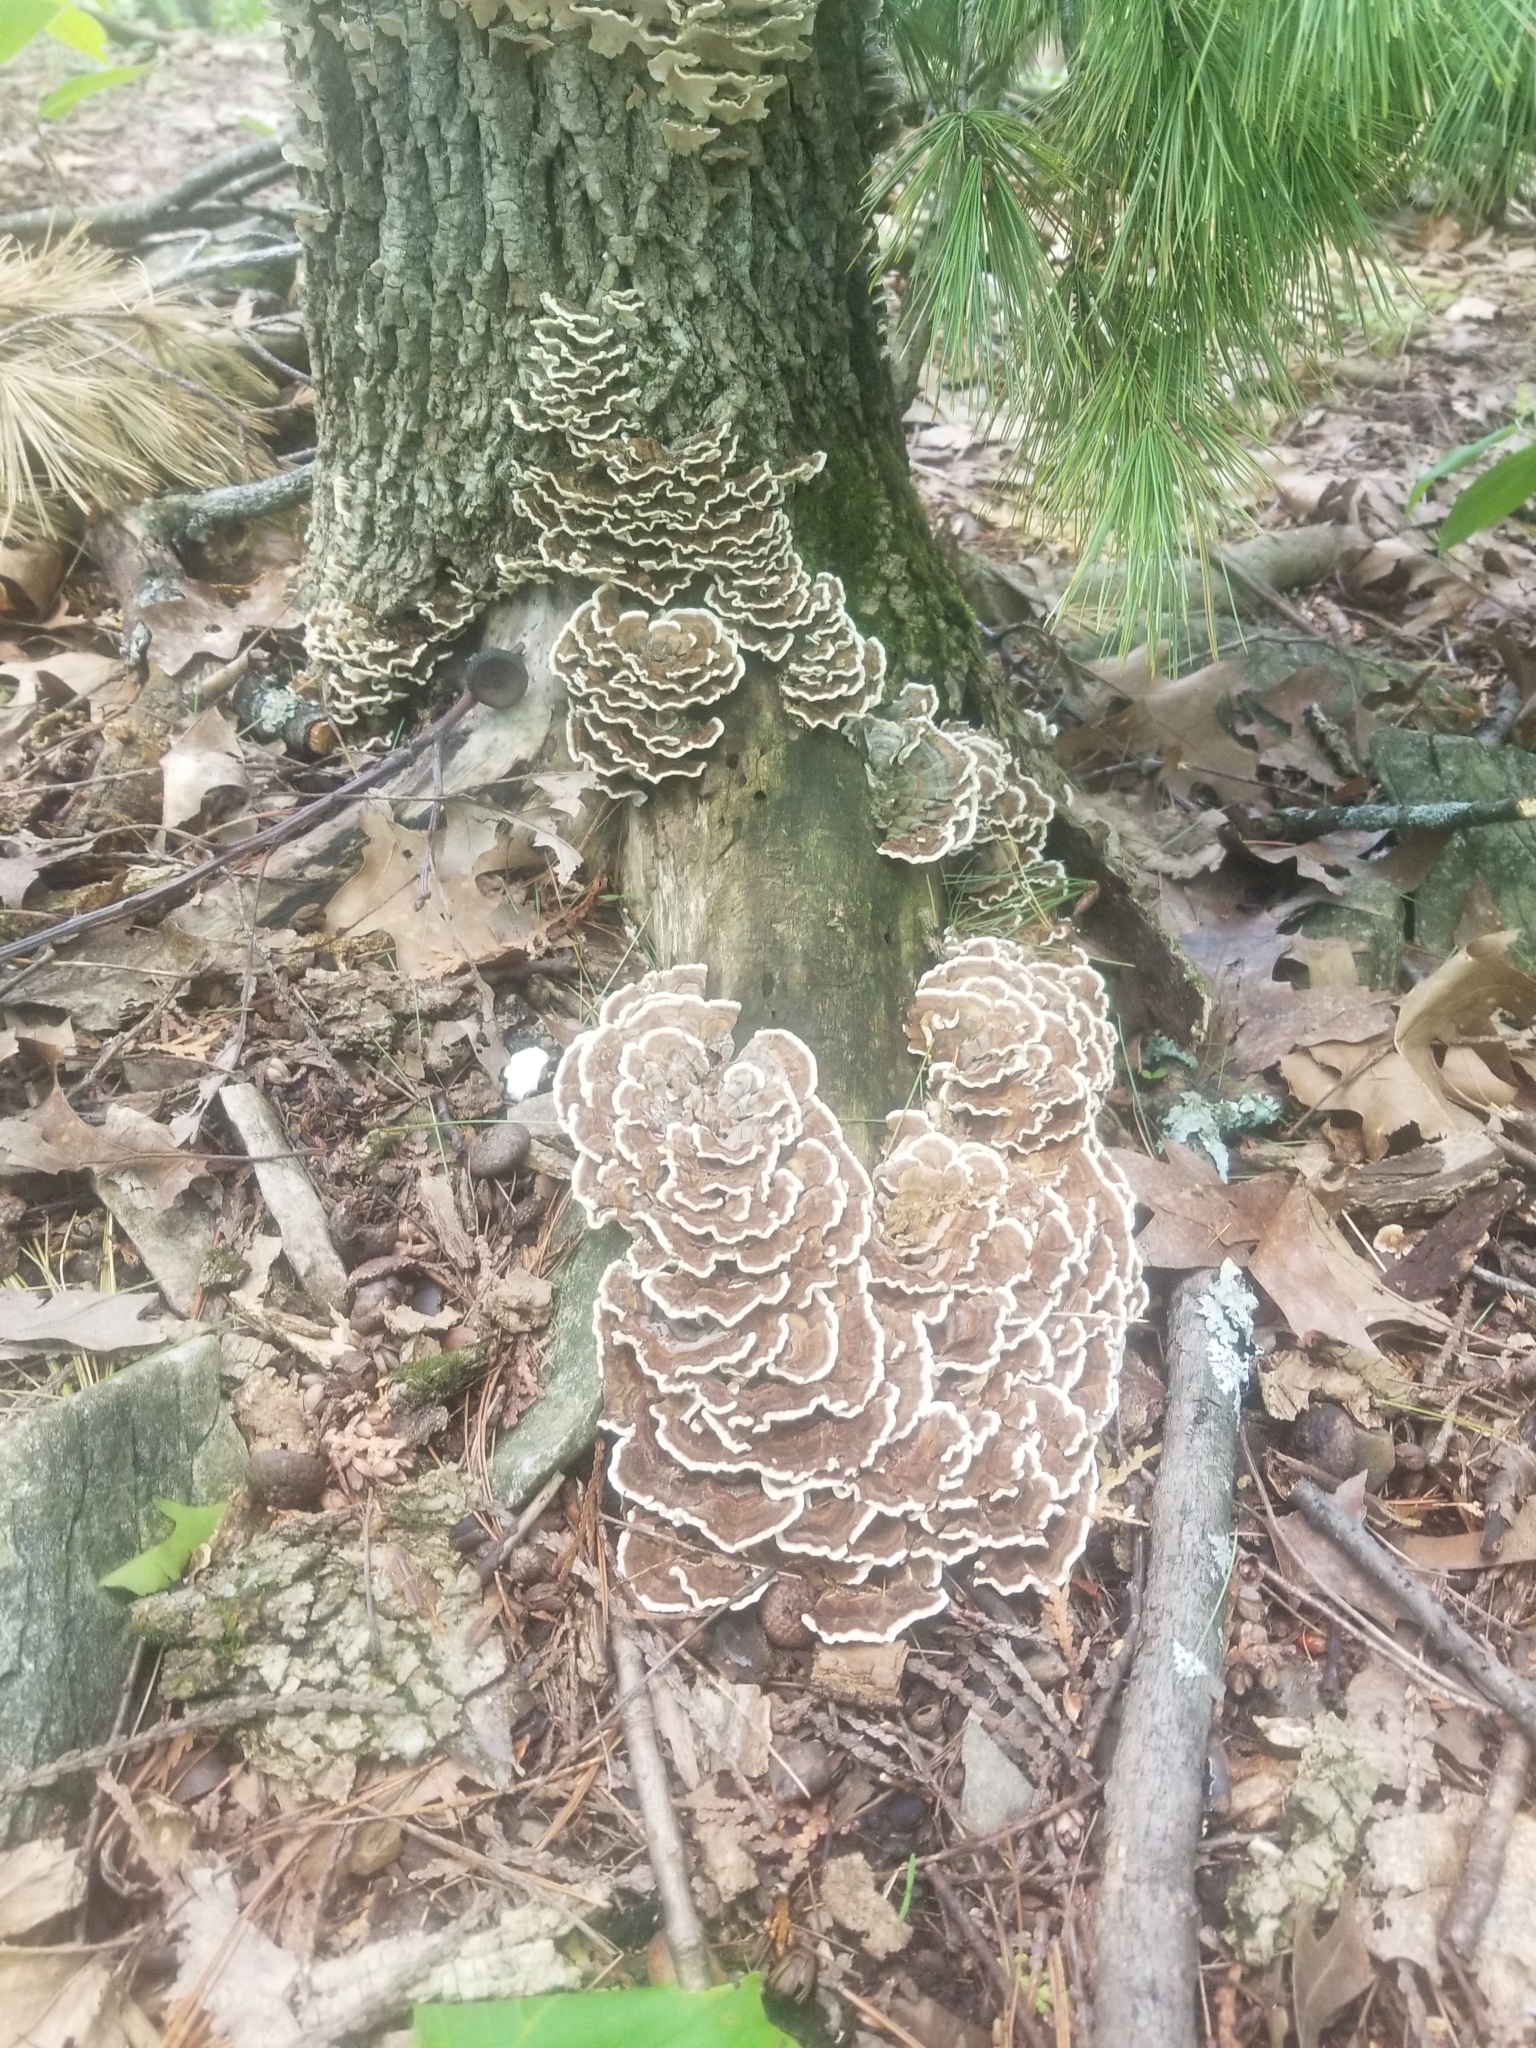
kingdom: Fungi
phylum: Basidiomycota
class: Agaricomycetes
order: Polyporales
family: Polyporaceae
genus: Trametes
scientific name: Trametes versicolor
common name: Turkeytail
